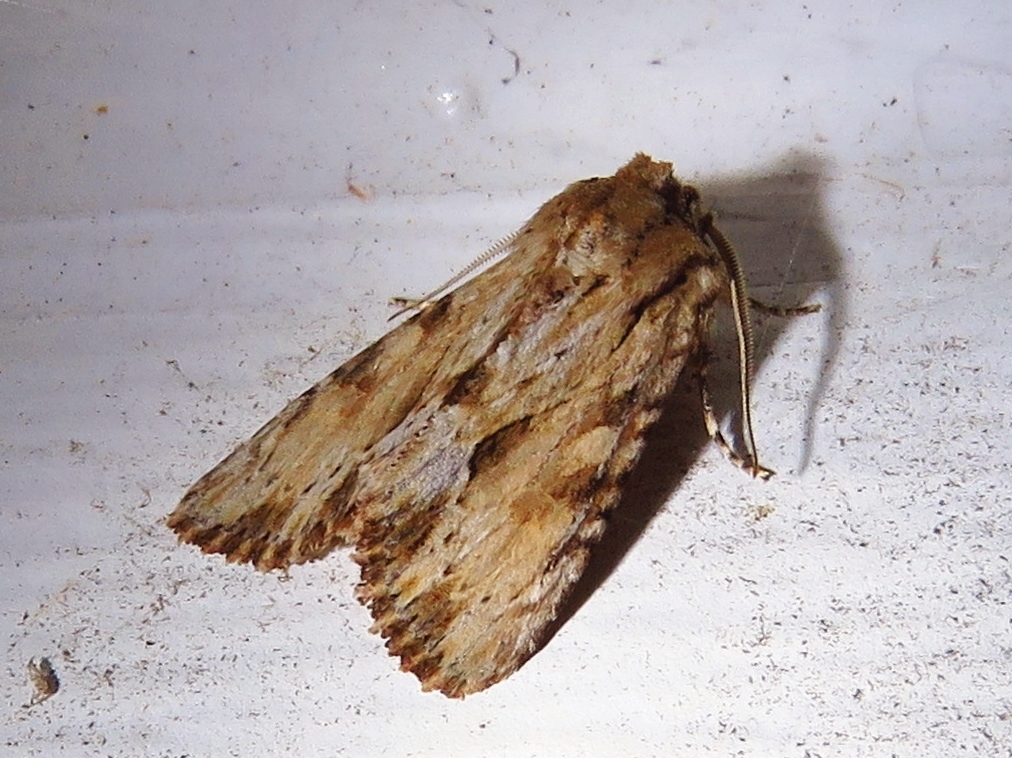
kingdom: Animalia
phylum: Arthropoda
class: Insecta
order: Lepidoptera
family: Noctuidae
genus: Achatia
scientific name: Achatia mucens
